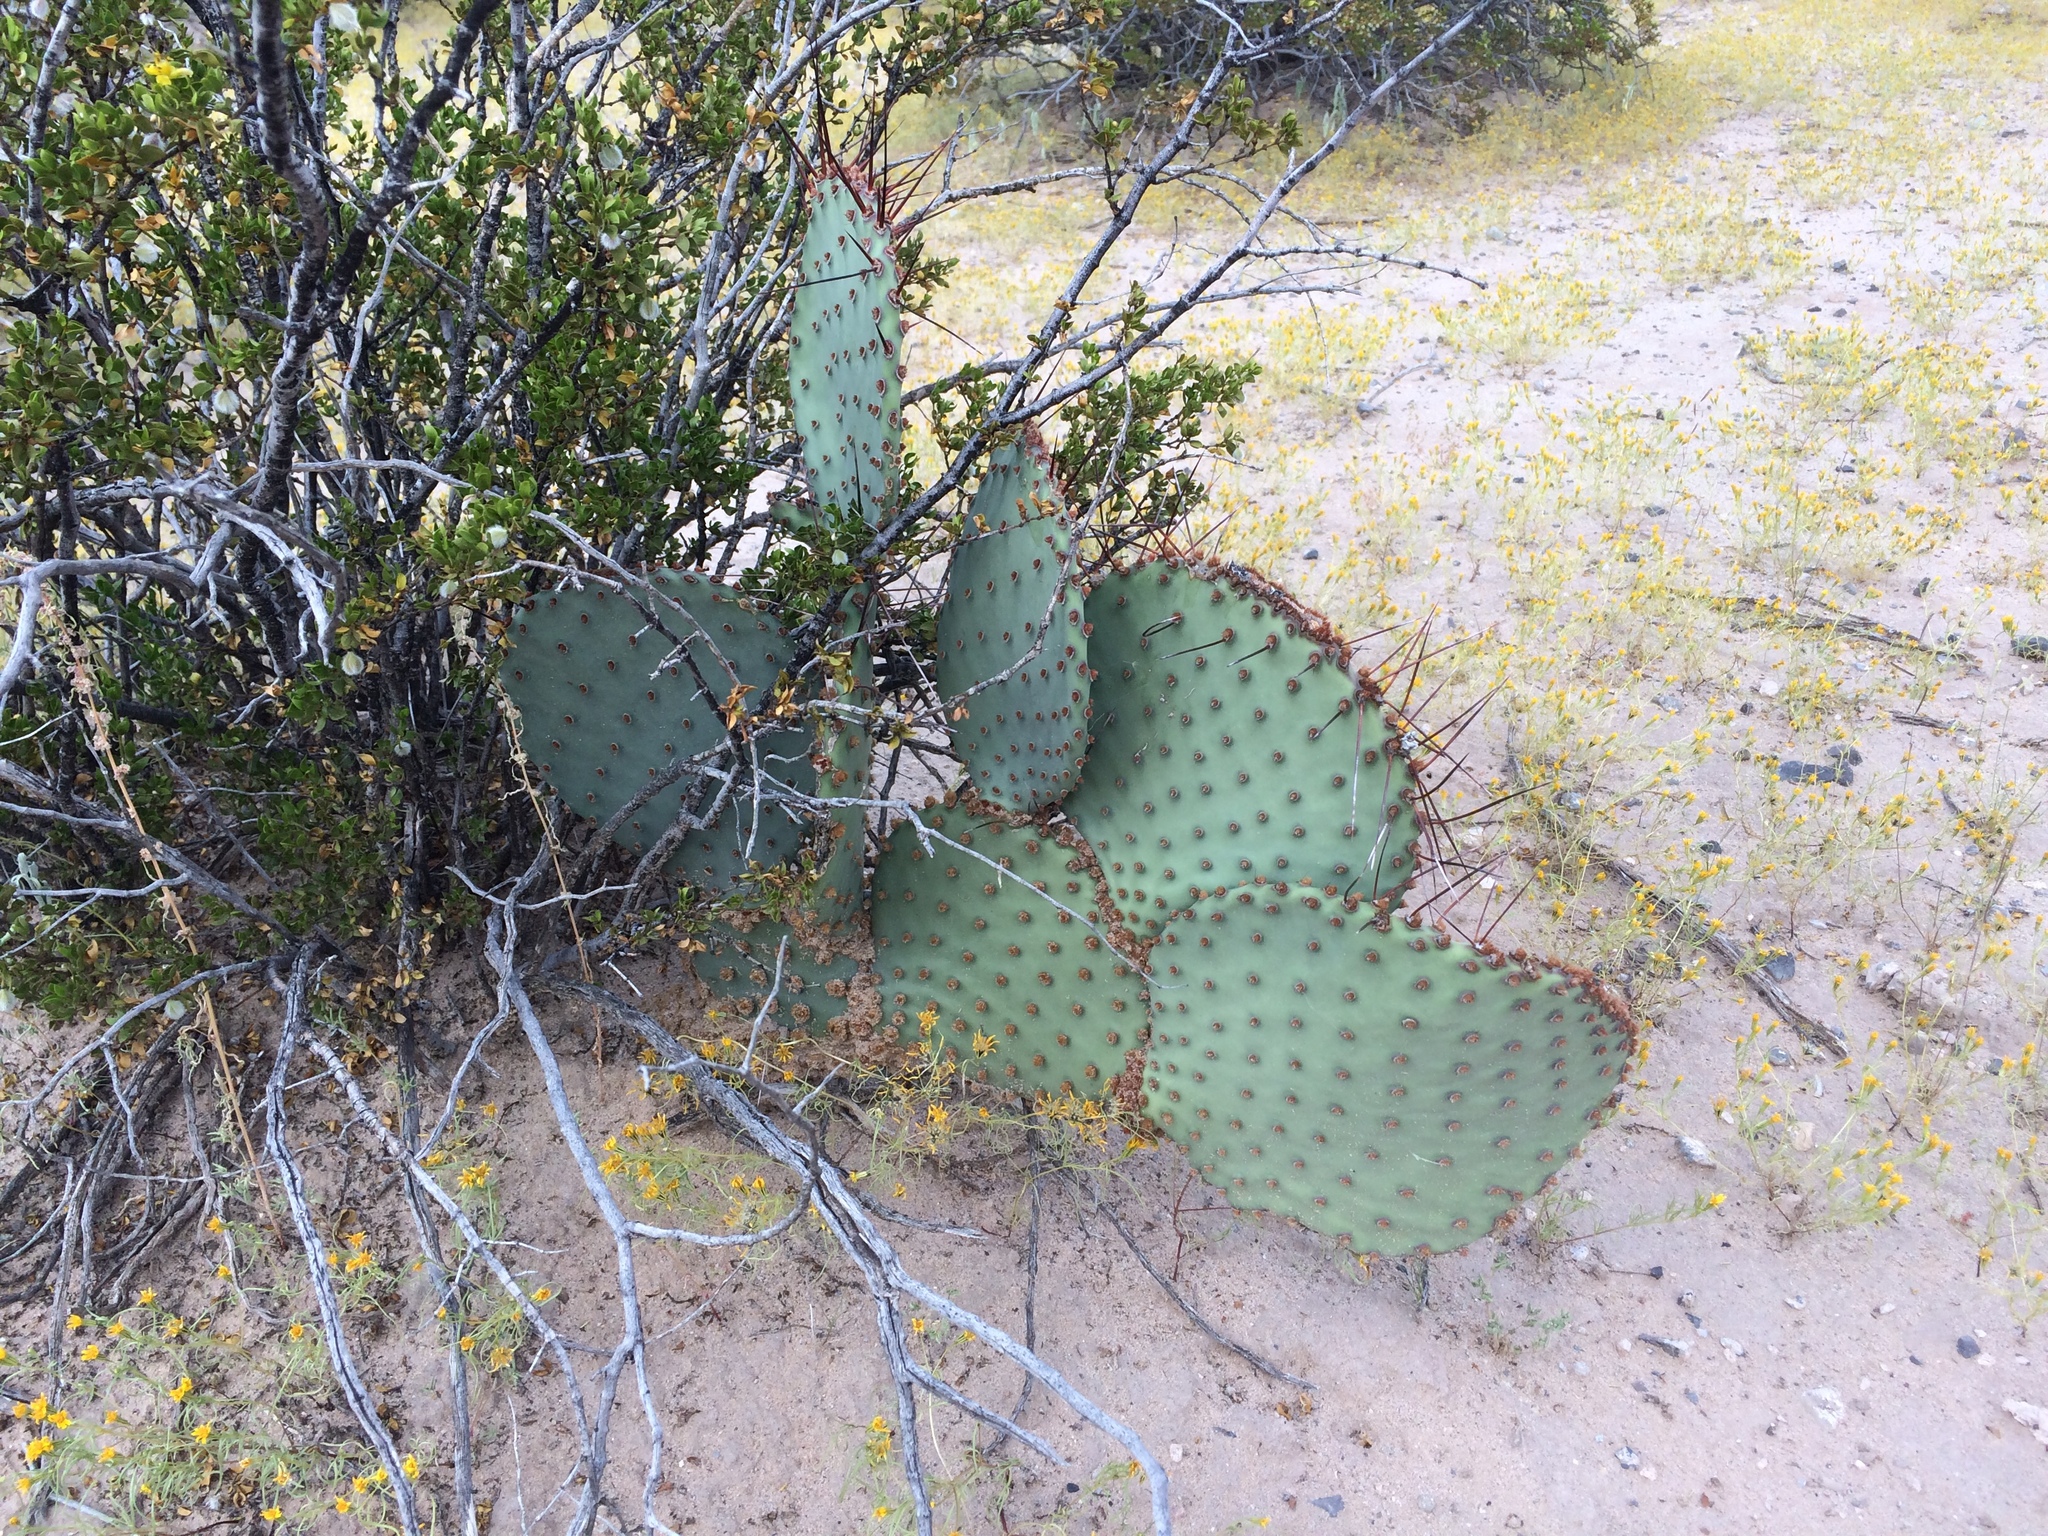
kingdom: Plantae
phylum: Tracheophyta
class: Magnoliopsida
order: Caryophyllales
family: Cactaceae
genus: Opuntia
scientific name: Opuntia macrocentra
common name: Purple prickly-pear
